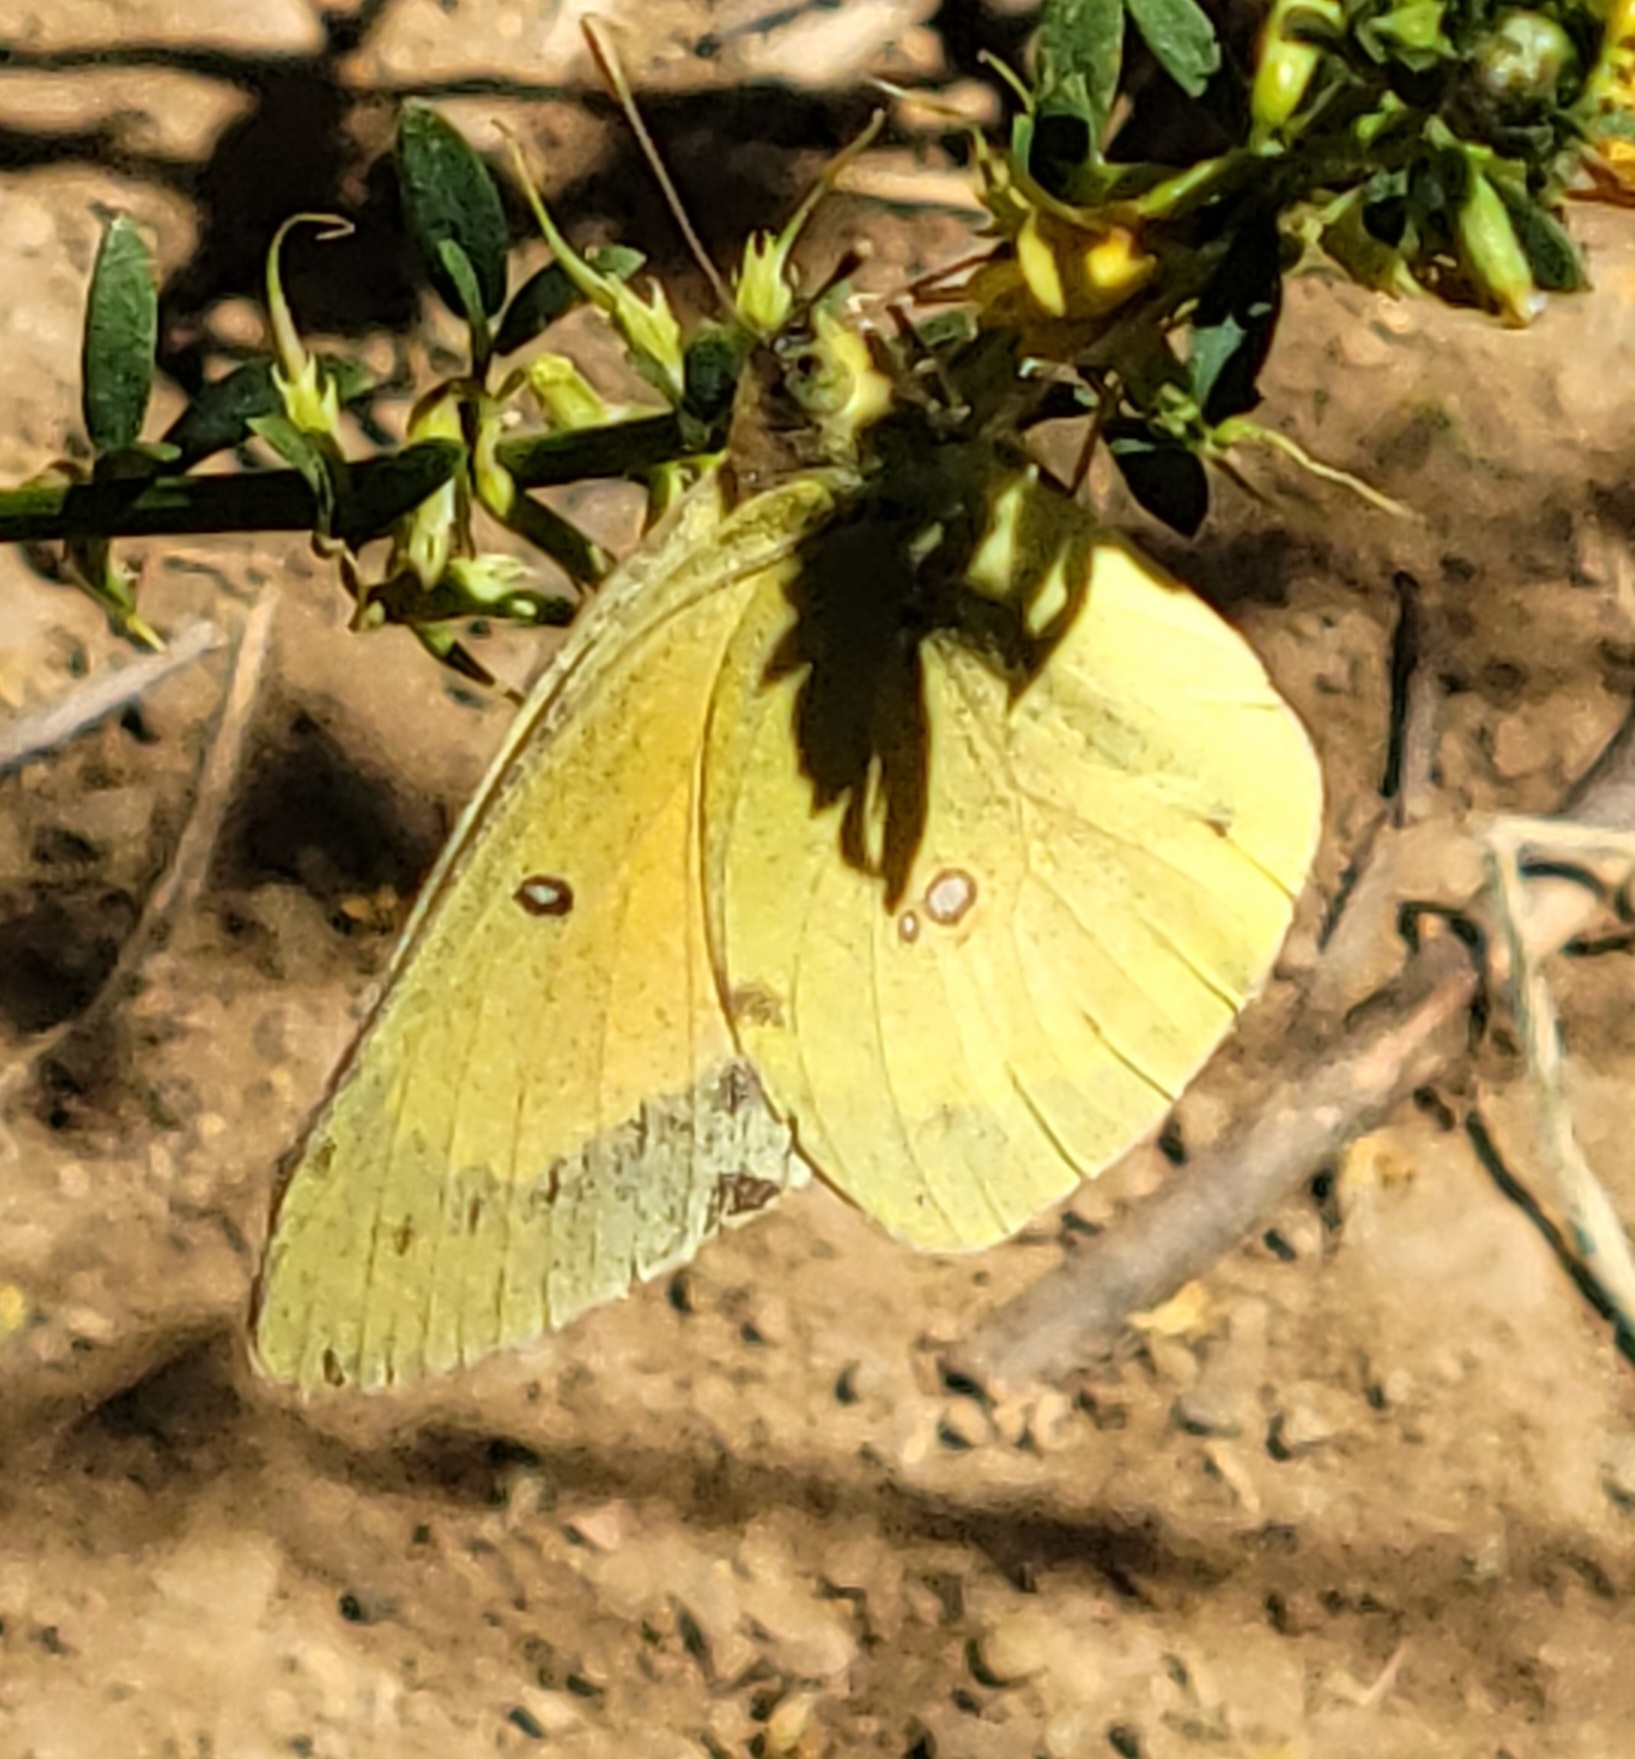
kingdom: Animalia
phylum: Arthropoda
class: Insecta
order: Lepidoptera
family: Pieridae
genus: Colias
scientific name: Colias eurytheme
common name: Alfalfa butterfly
